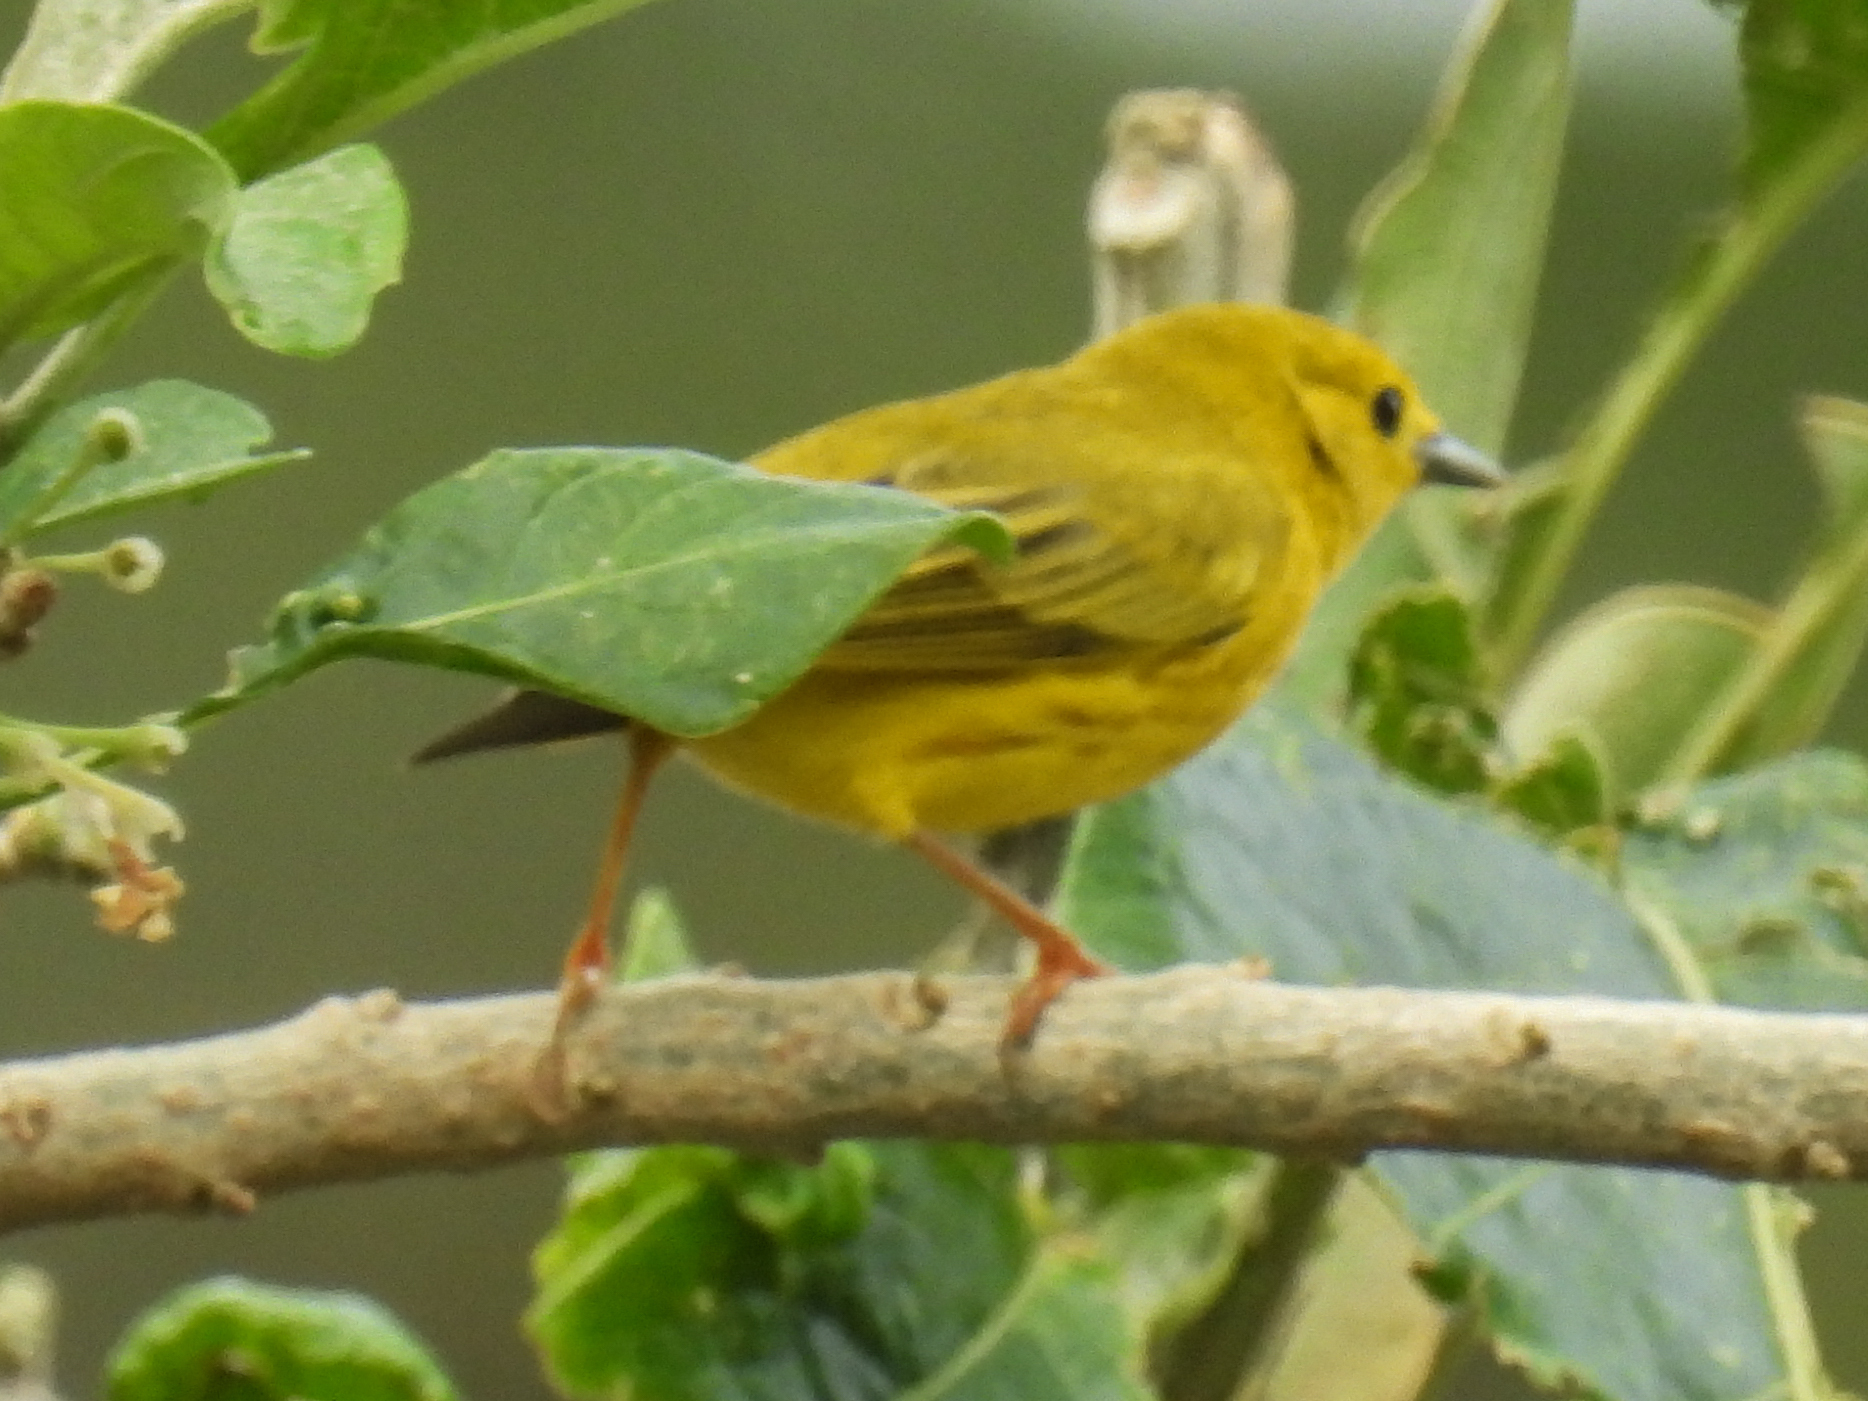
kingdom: Animalia
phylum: Chordata
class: Aves
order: Passeriformes
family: Parulidae
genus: Setophaga
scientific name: Setophaga petechia
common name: Yellow warbler
